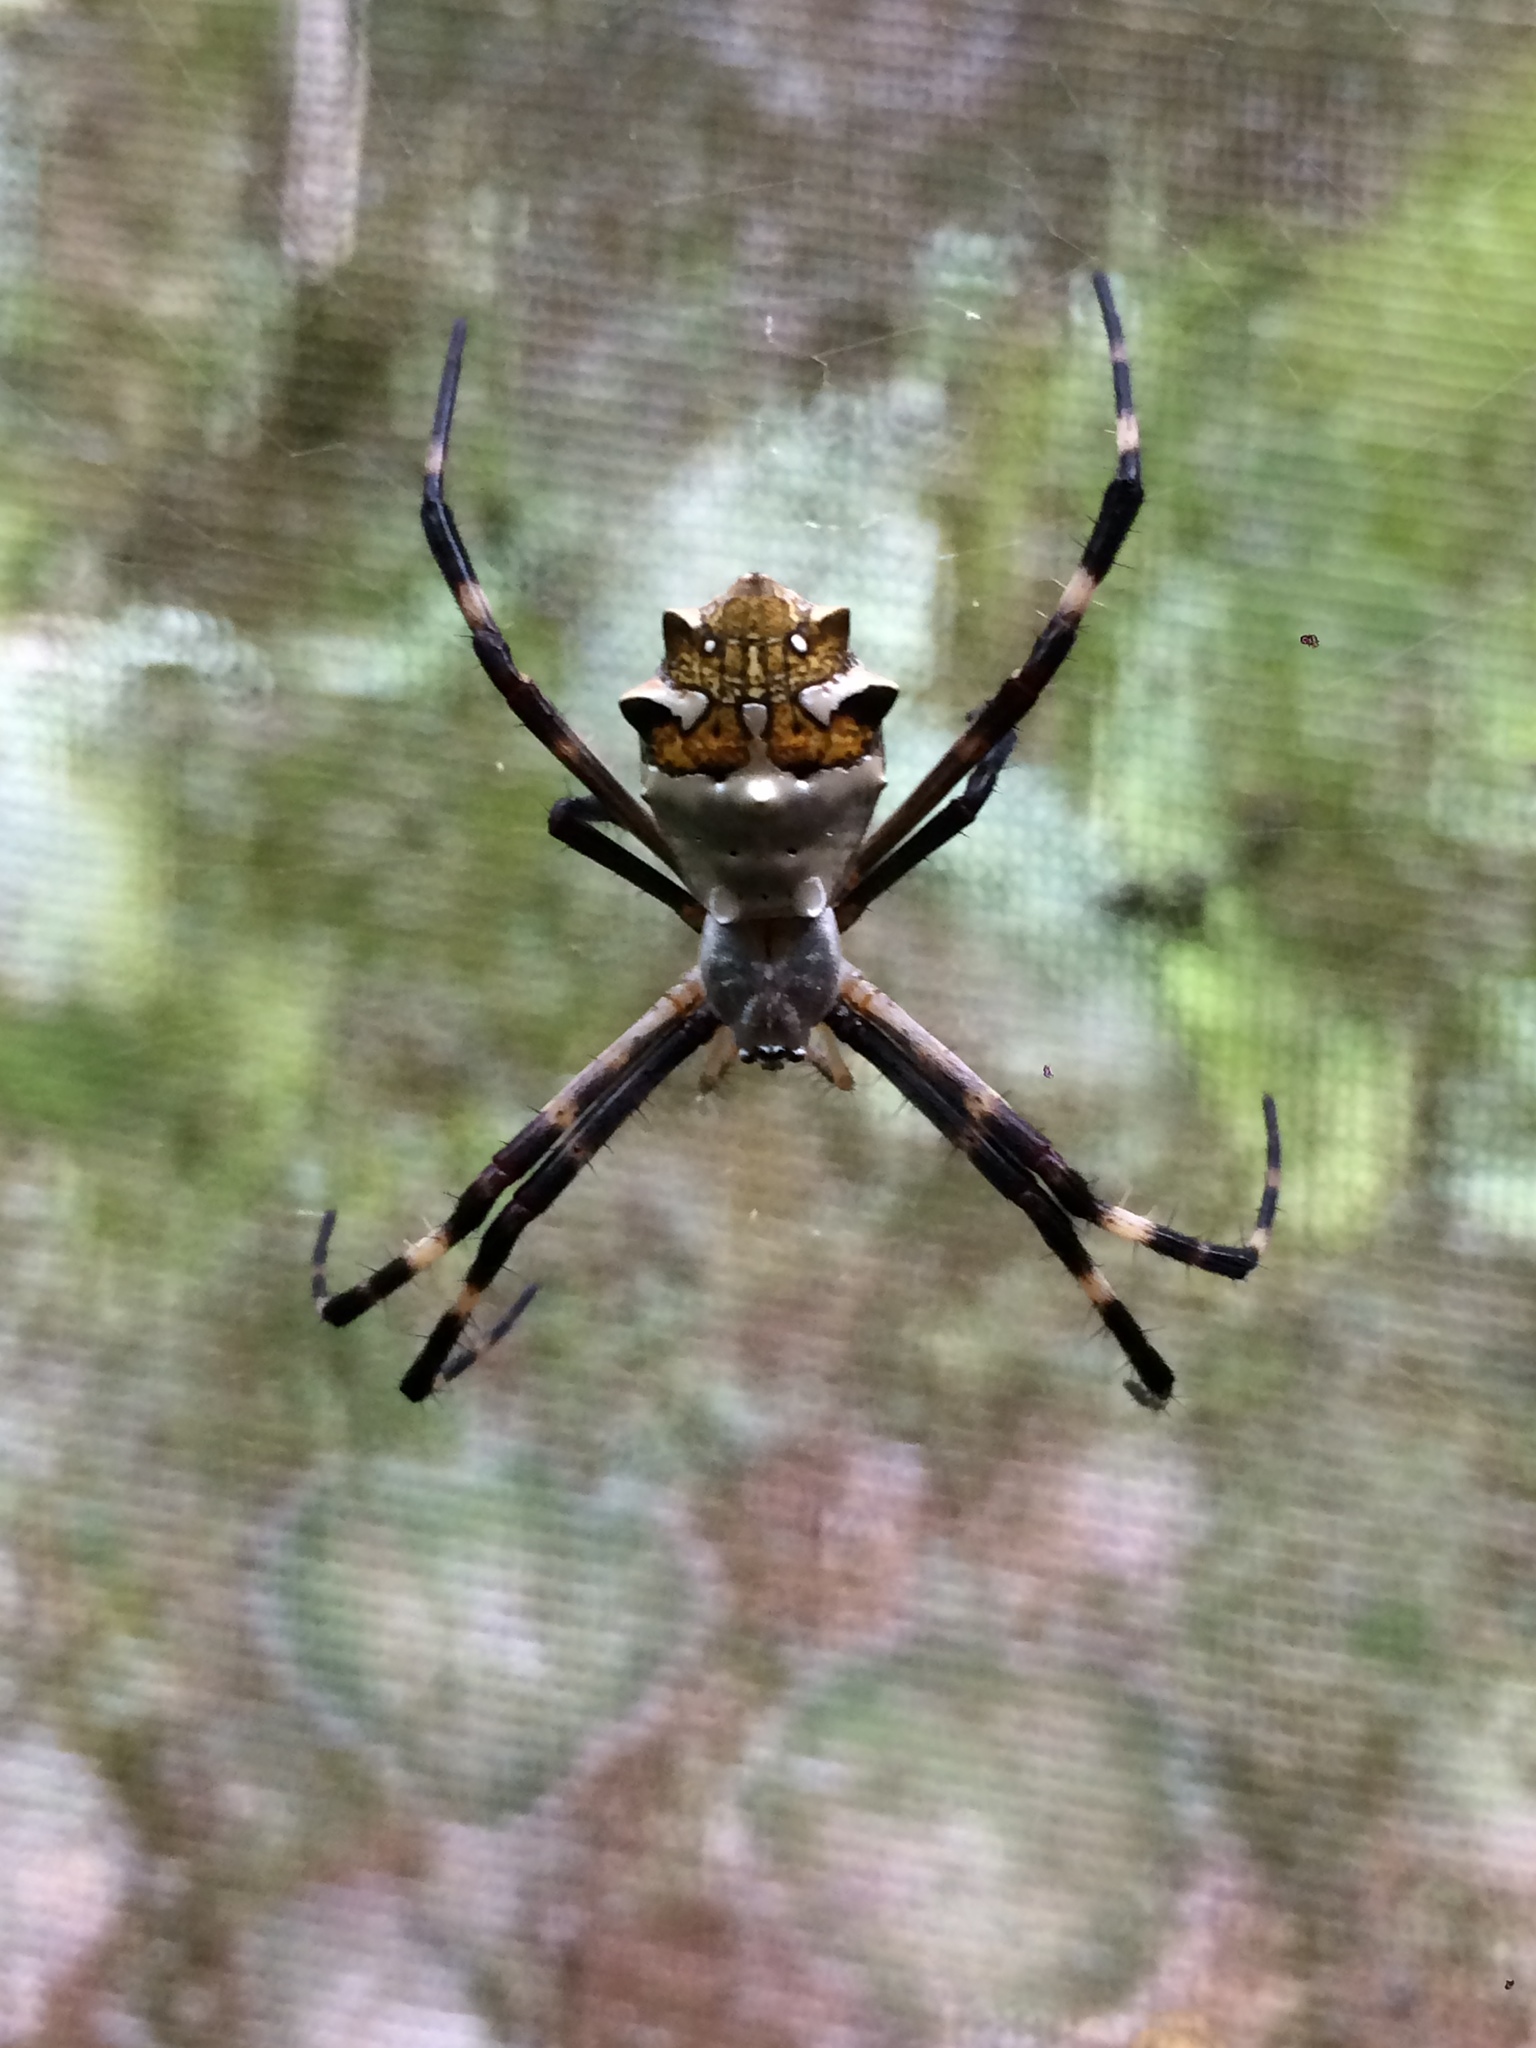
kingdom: Animalia
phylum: Arthropoda
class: Arachnida
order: Araneae
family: Araneidae
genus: Argiope
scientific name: Argiope argentata
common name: Orb weavers
